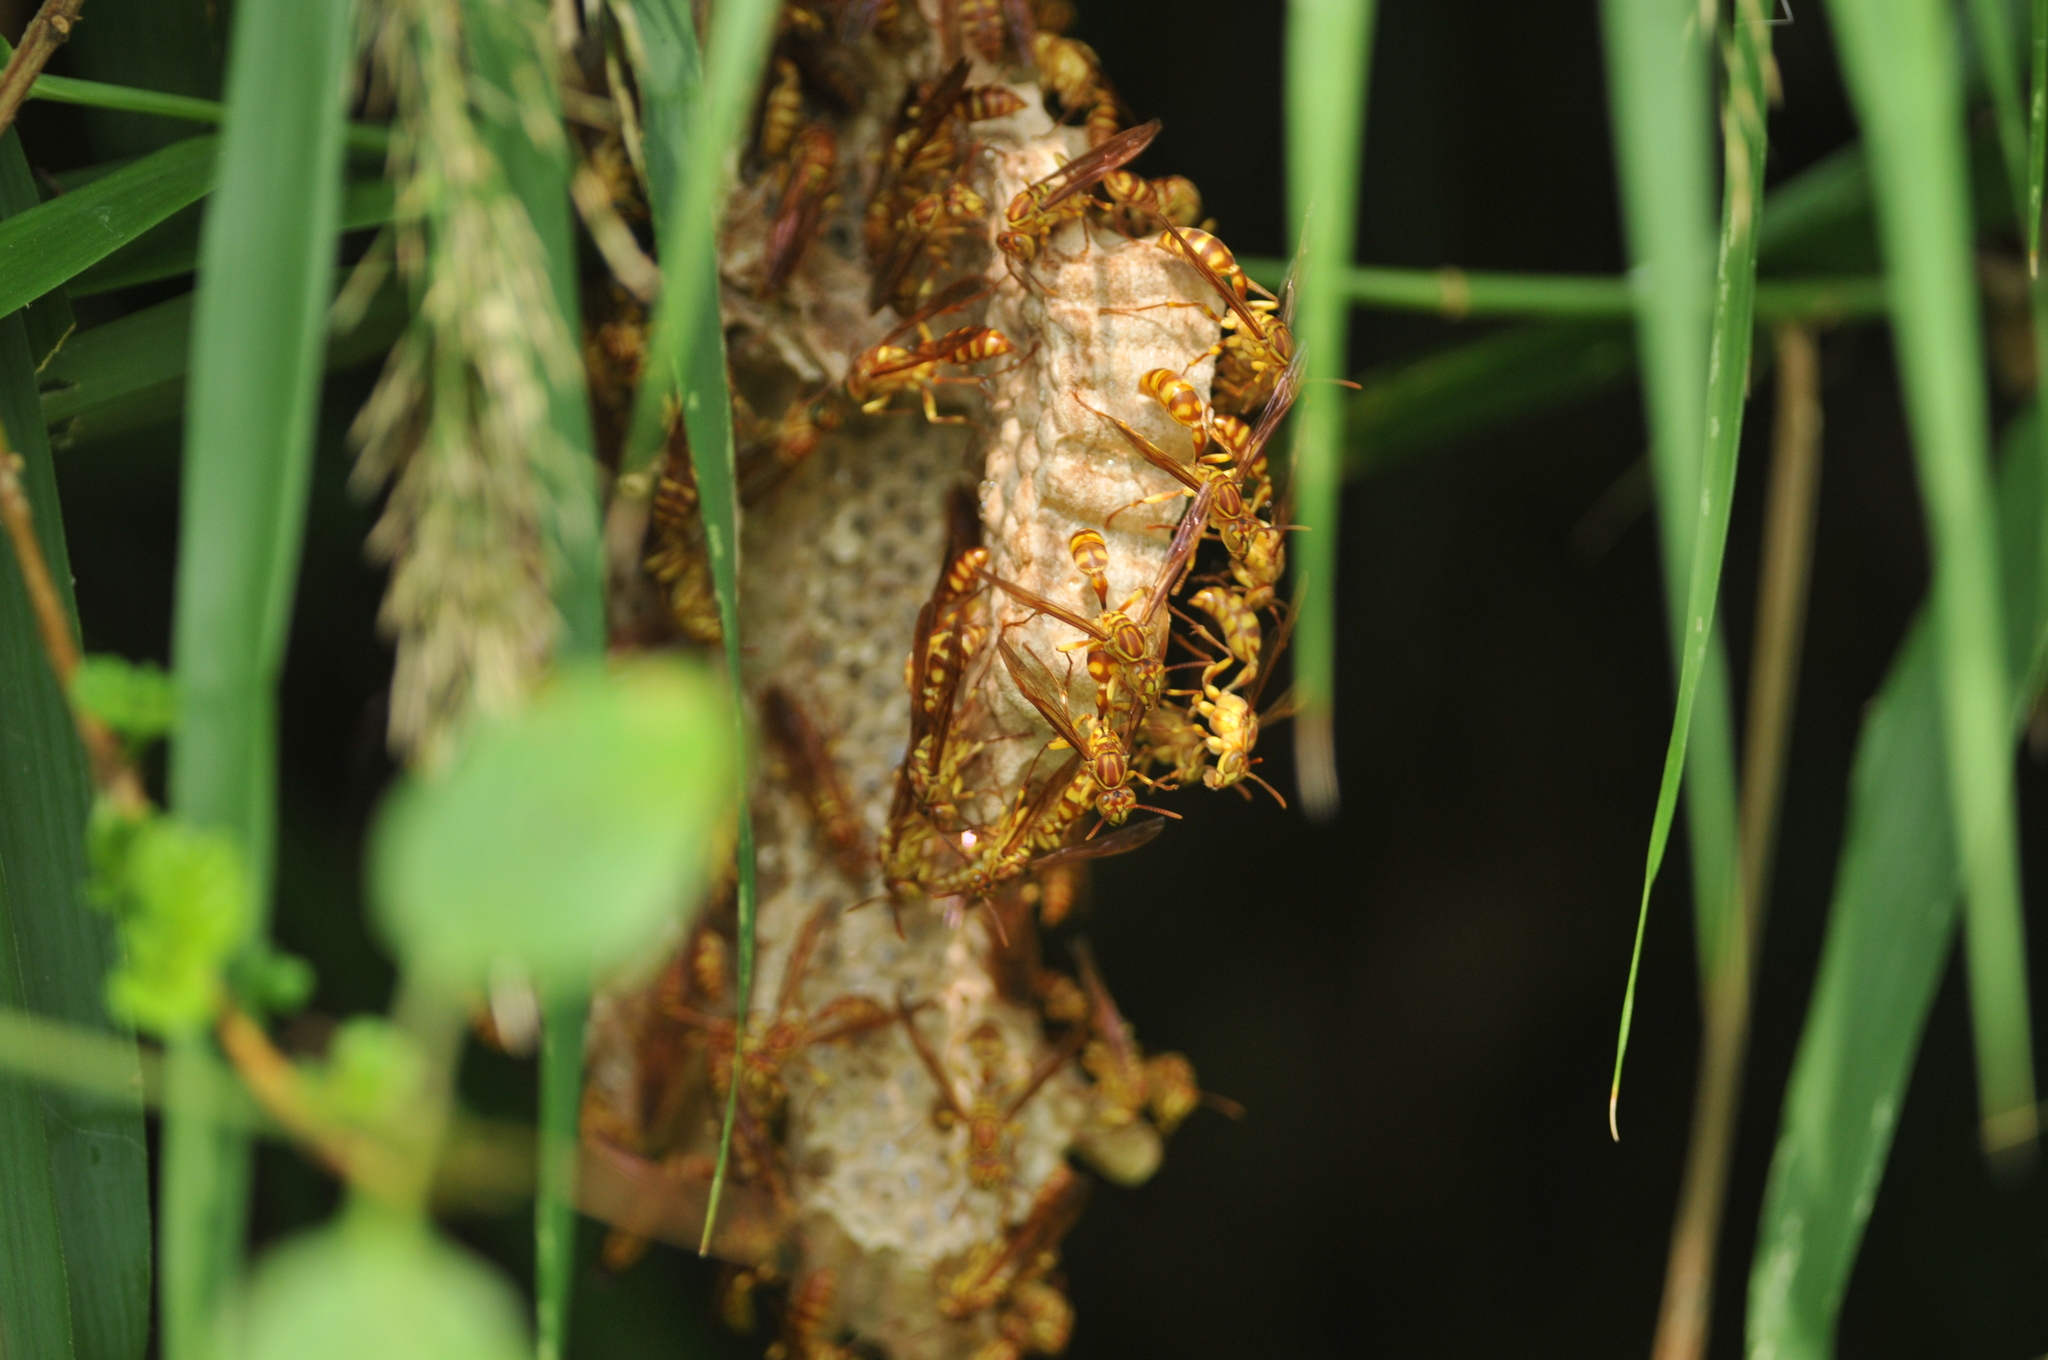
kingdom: Animalia
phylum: Arthropoda
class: Insecta
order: Hymenoptera
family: Vespidae
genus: Parapolybia
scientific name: Parapolybia varia
